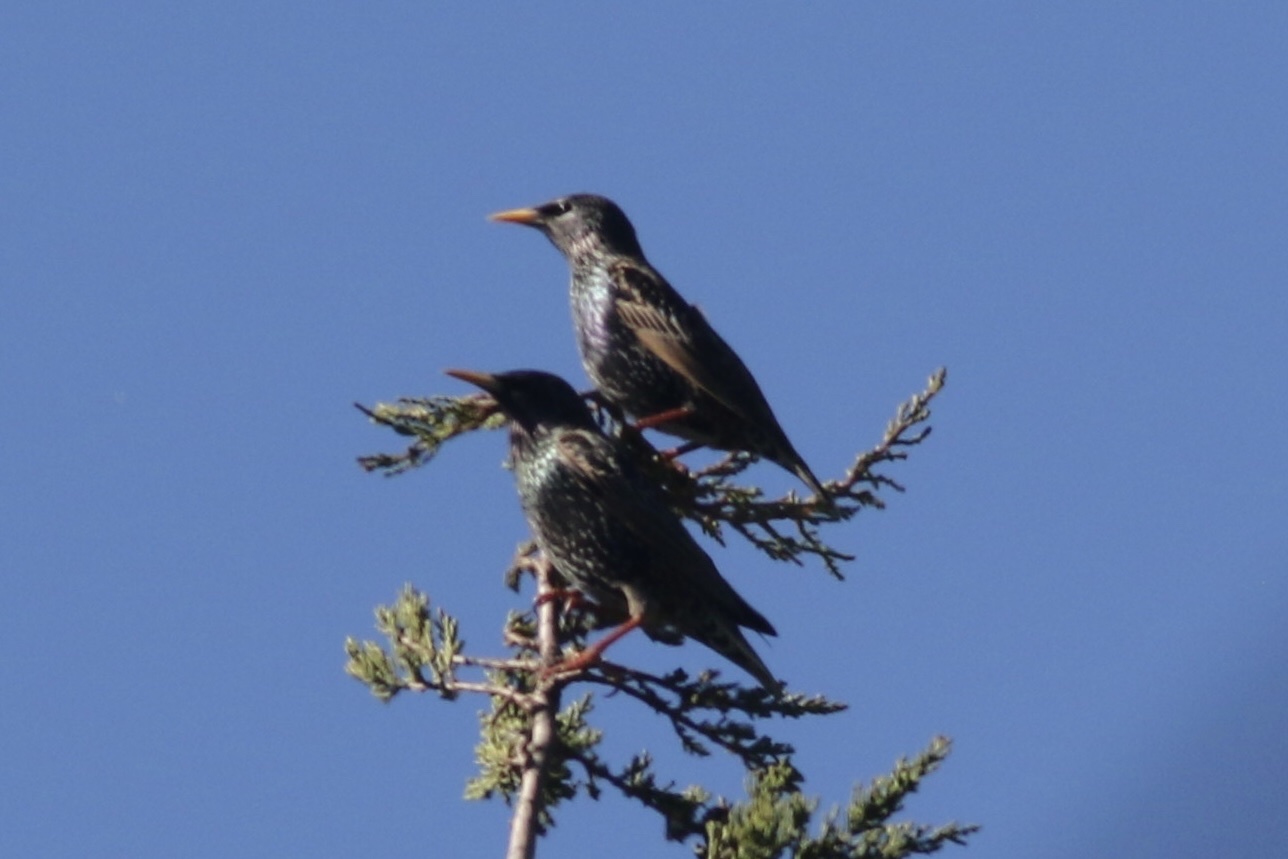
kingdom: Animalia
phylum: Chordata
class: Aves
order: Passeriformes
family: Sturnidae
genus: Sturnus
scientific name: Sturnus vulgaris
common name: Common starling
